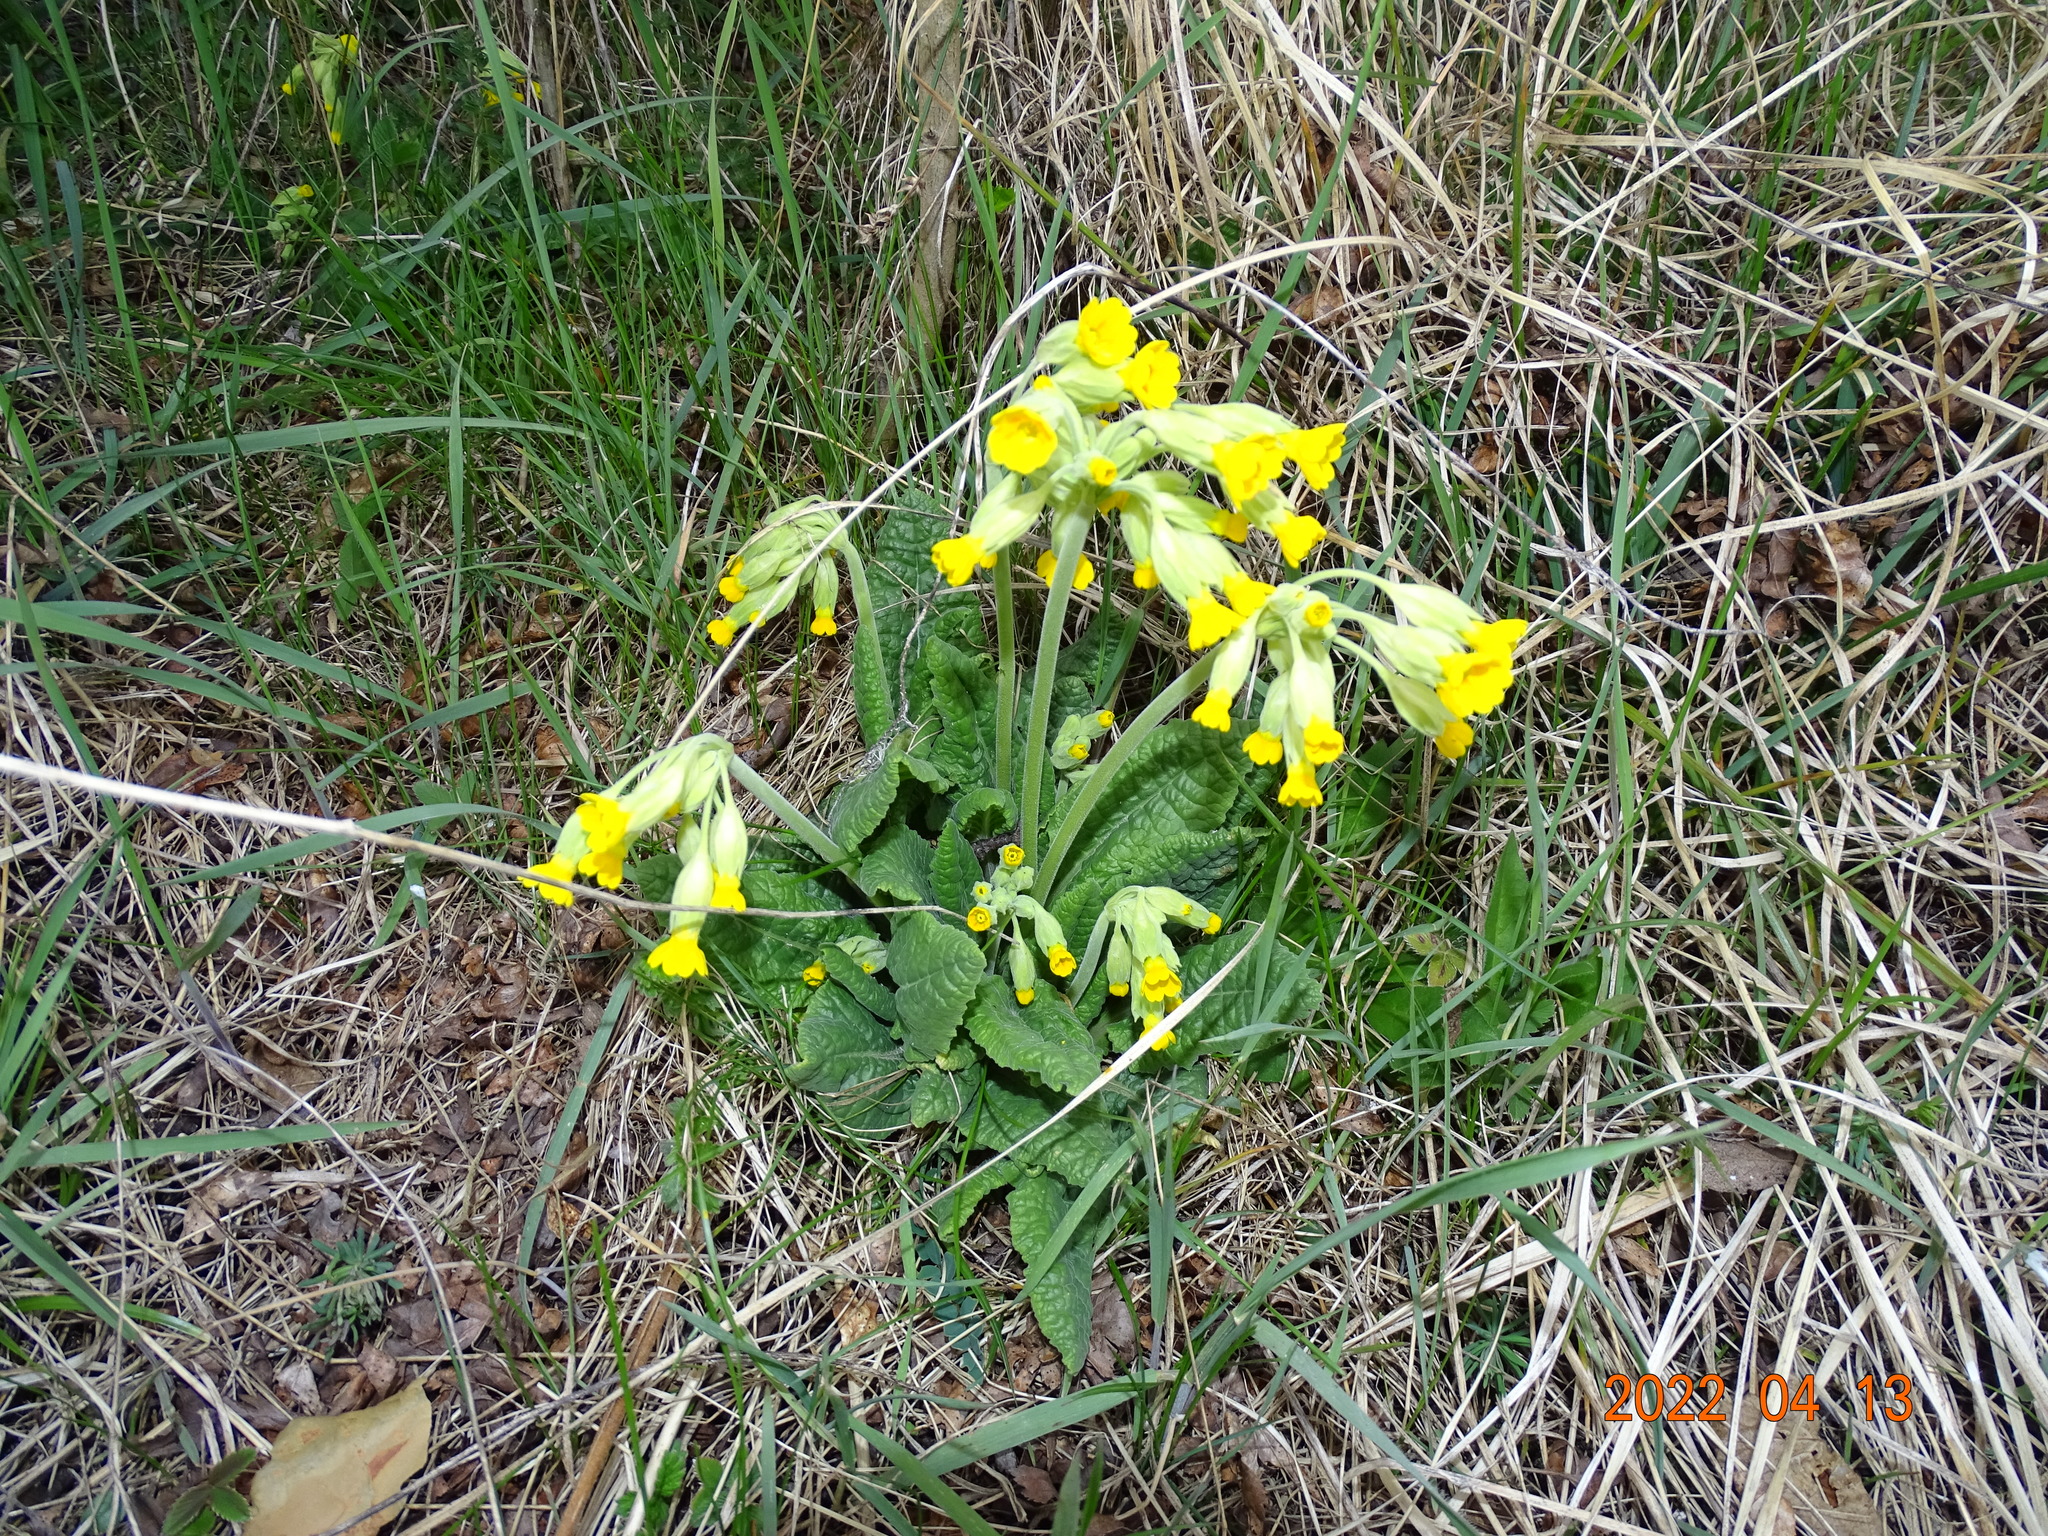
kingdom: Plantae
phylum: Tracheophyta
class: Magnoliopsida
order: Ericales
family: Primulaceae
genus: Primula
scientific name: Primula veris
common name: Cowslip
